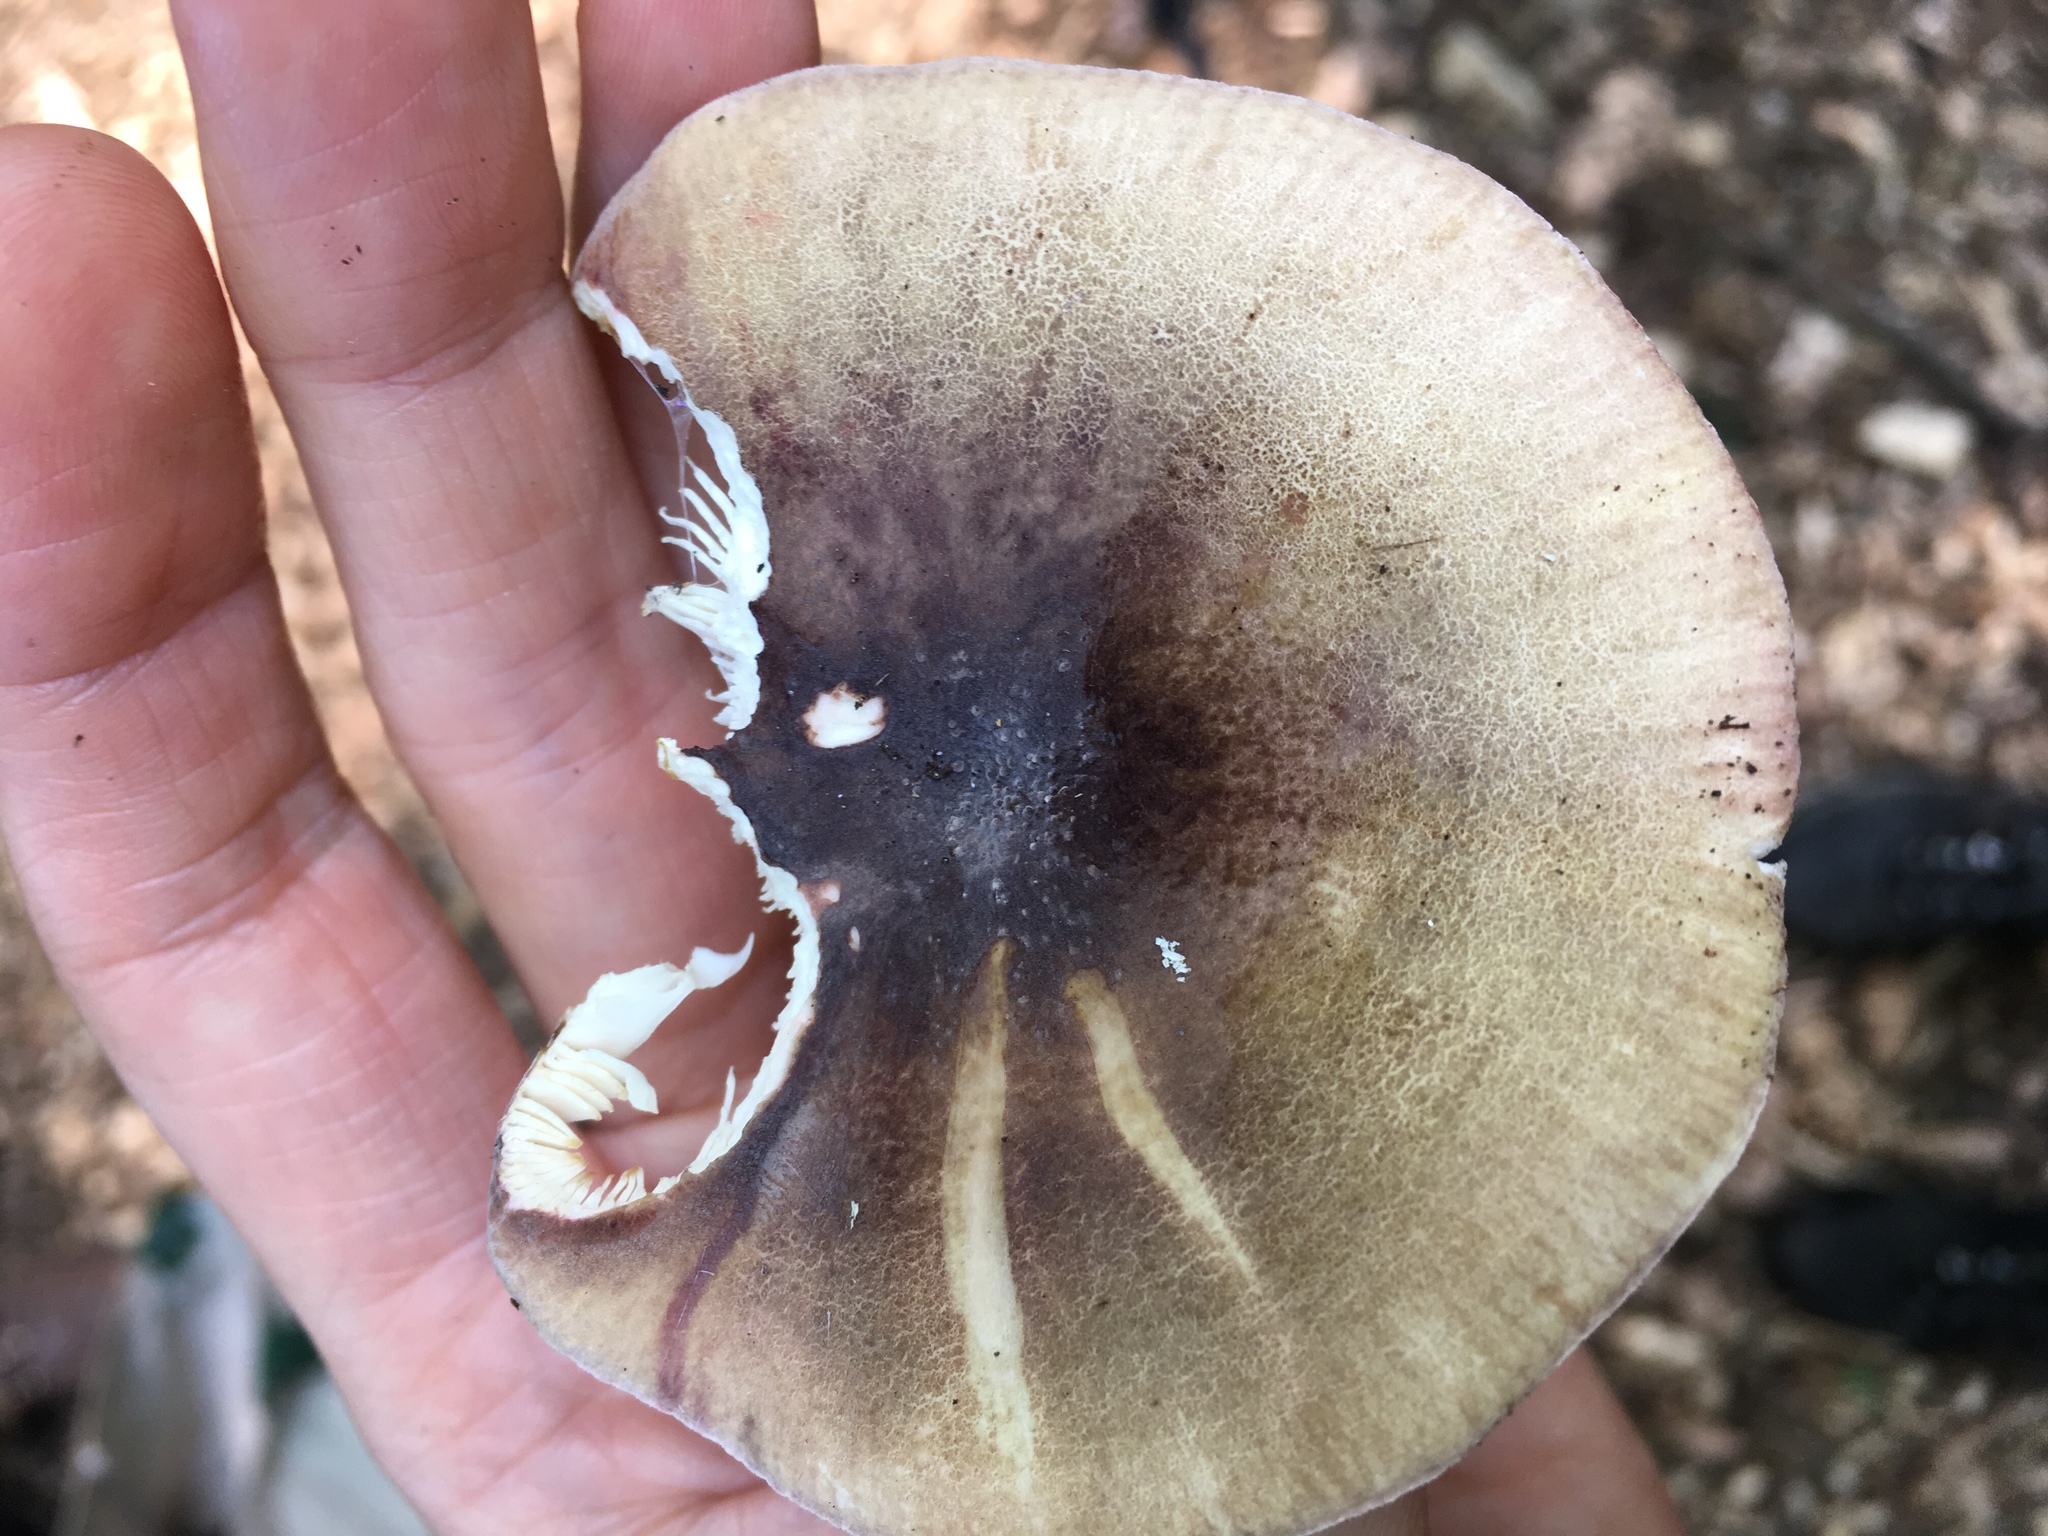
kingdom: Fungi
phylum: Basidiomycota
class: Agaricomycetes
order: Russulales
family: Russulaceae
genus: Russula
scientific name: Russula olivacea
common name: Olive brittlegill
